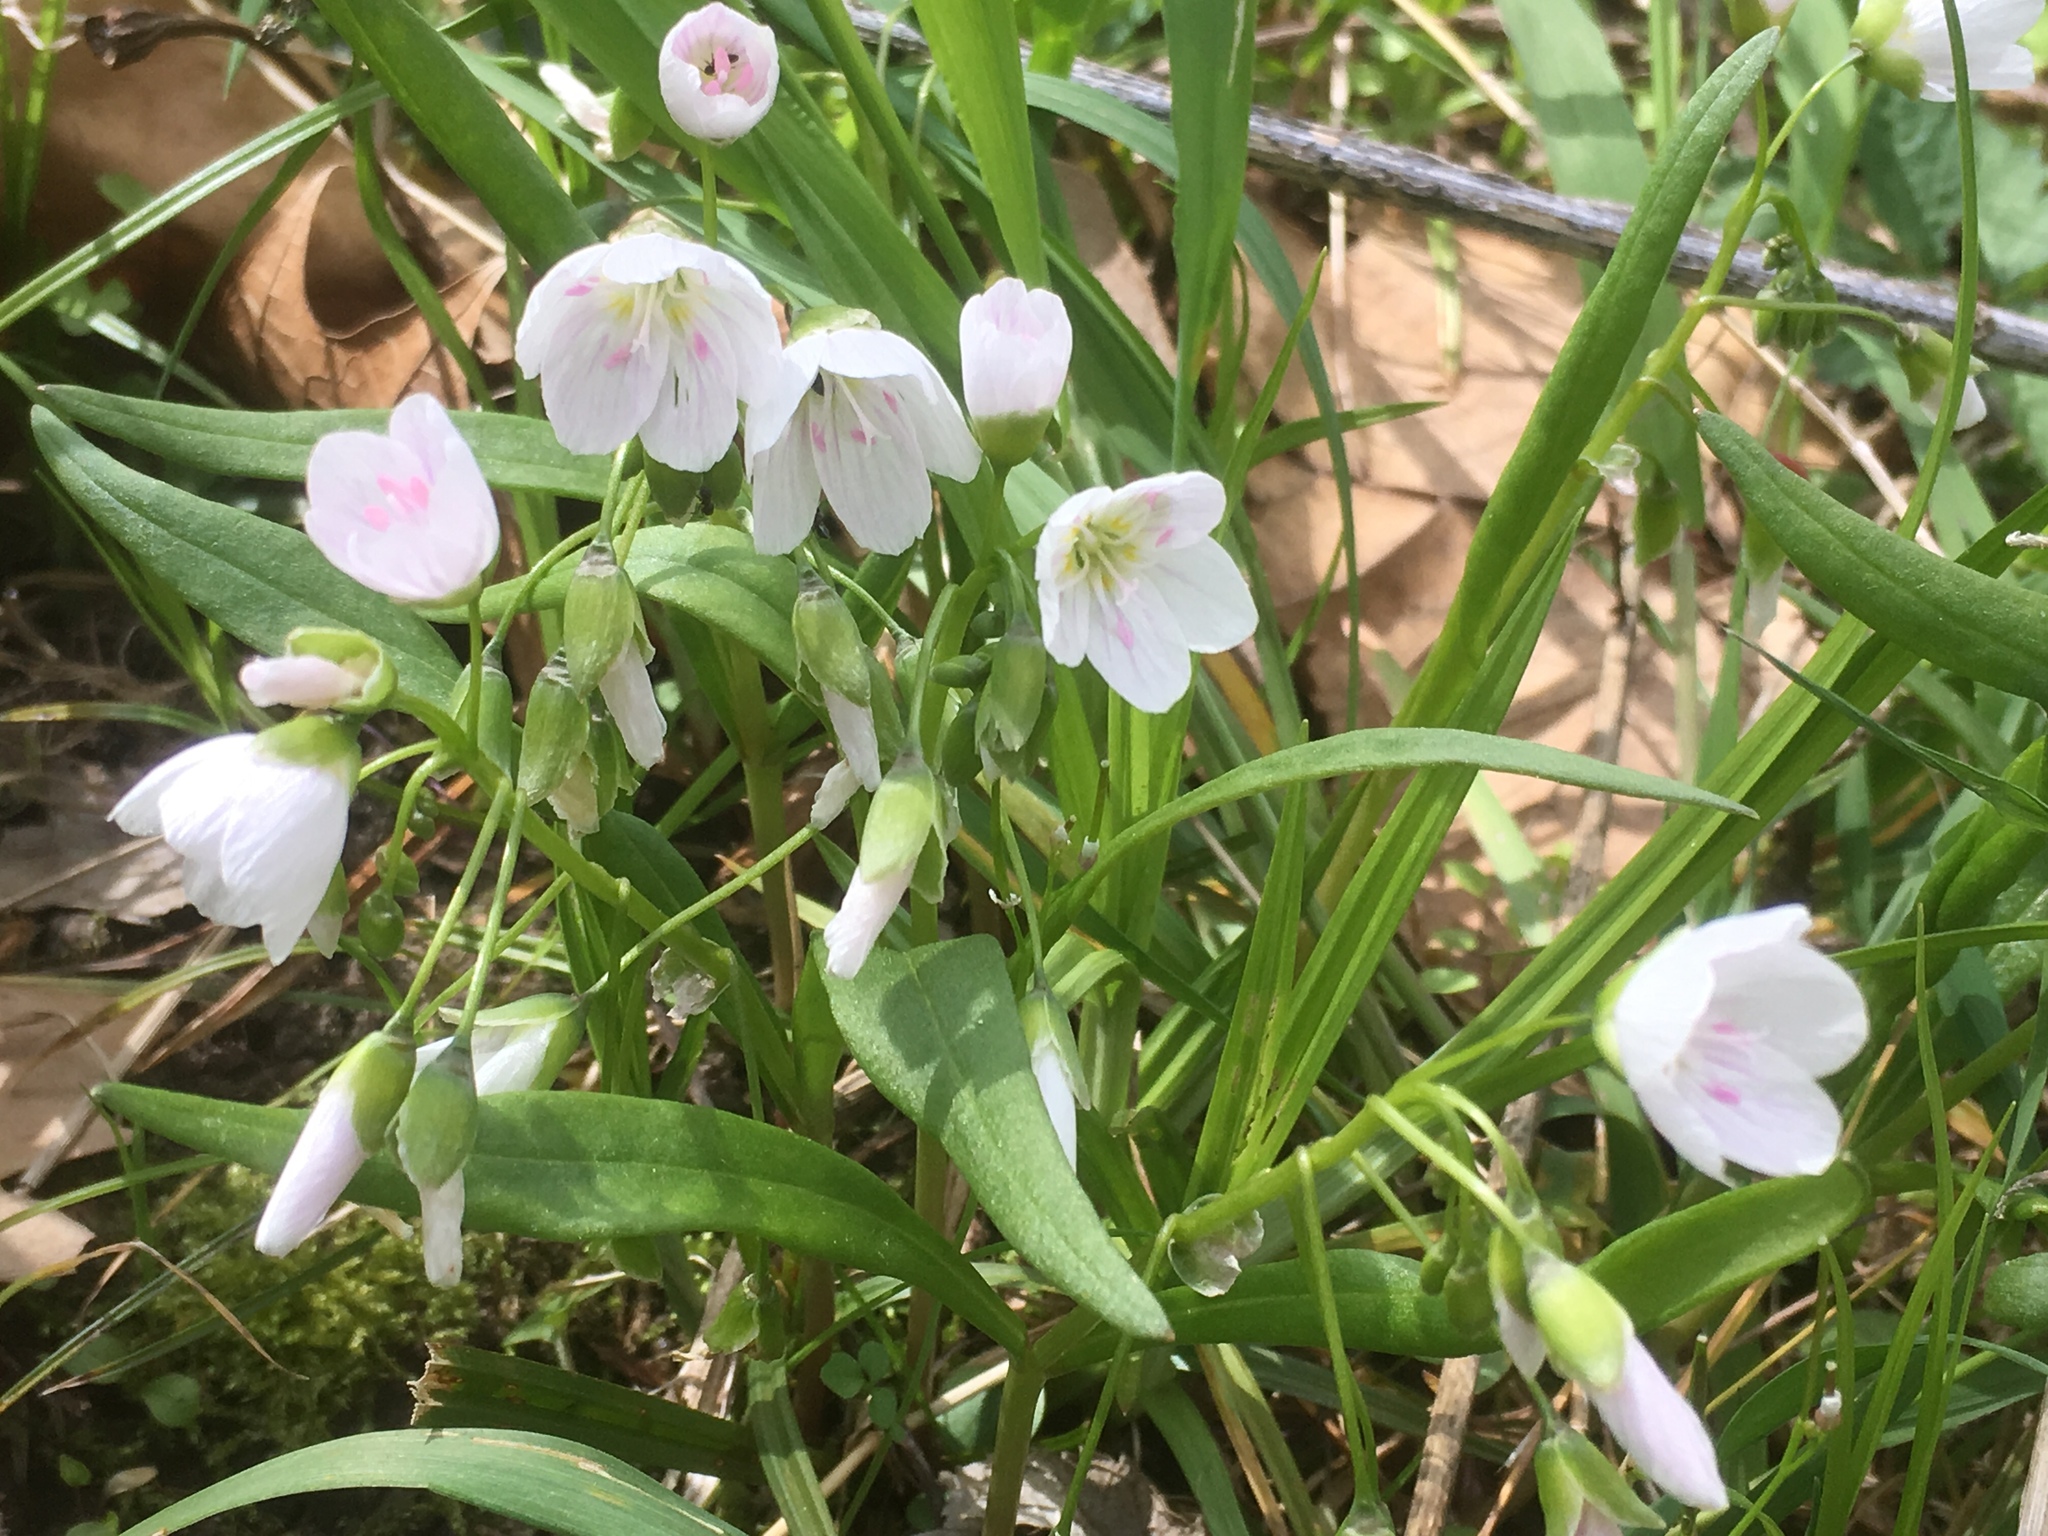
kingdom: Plantae
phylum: Tracheophyta
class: Magnoliopsida
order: Caryophyllales
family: Montiaceae
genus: Claytonia
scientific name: Claytonia virginica
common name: Virginia springbeauty
